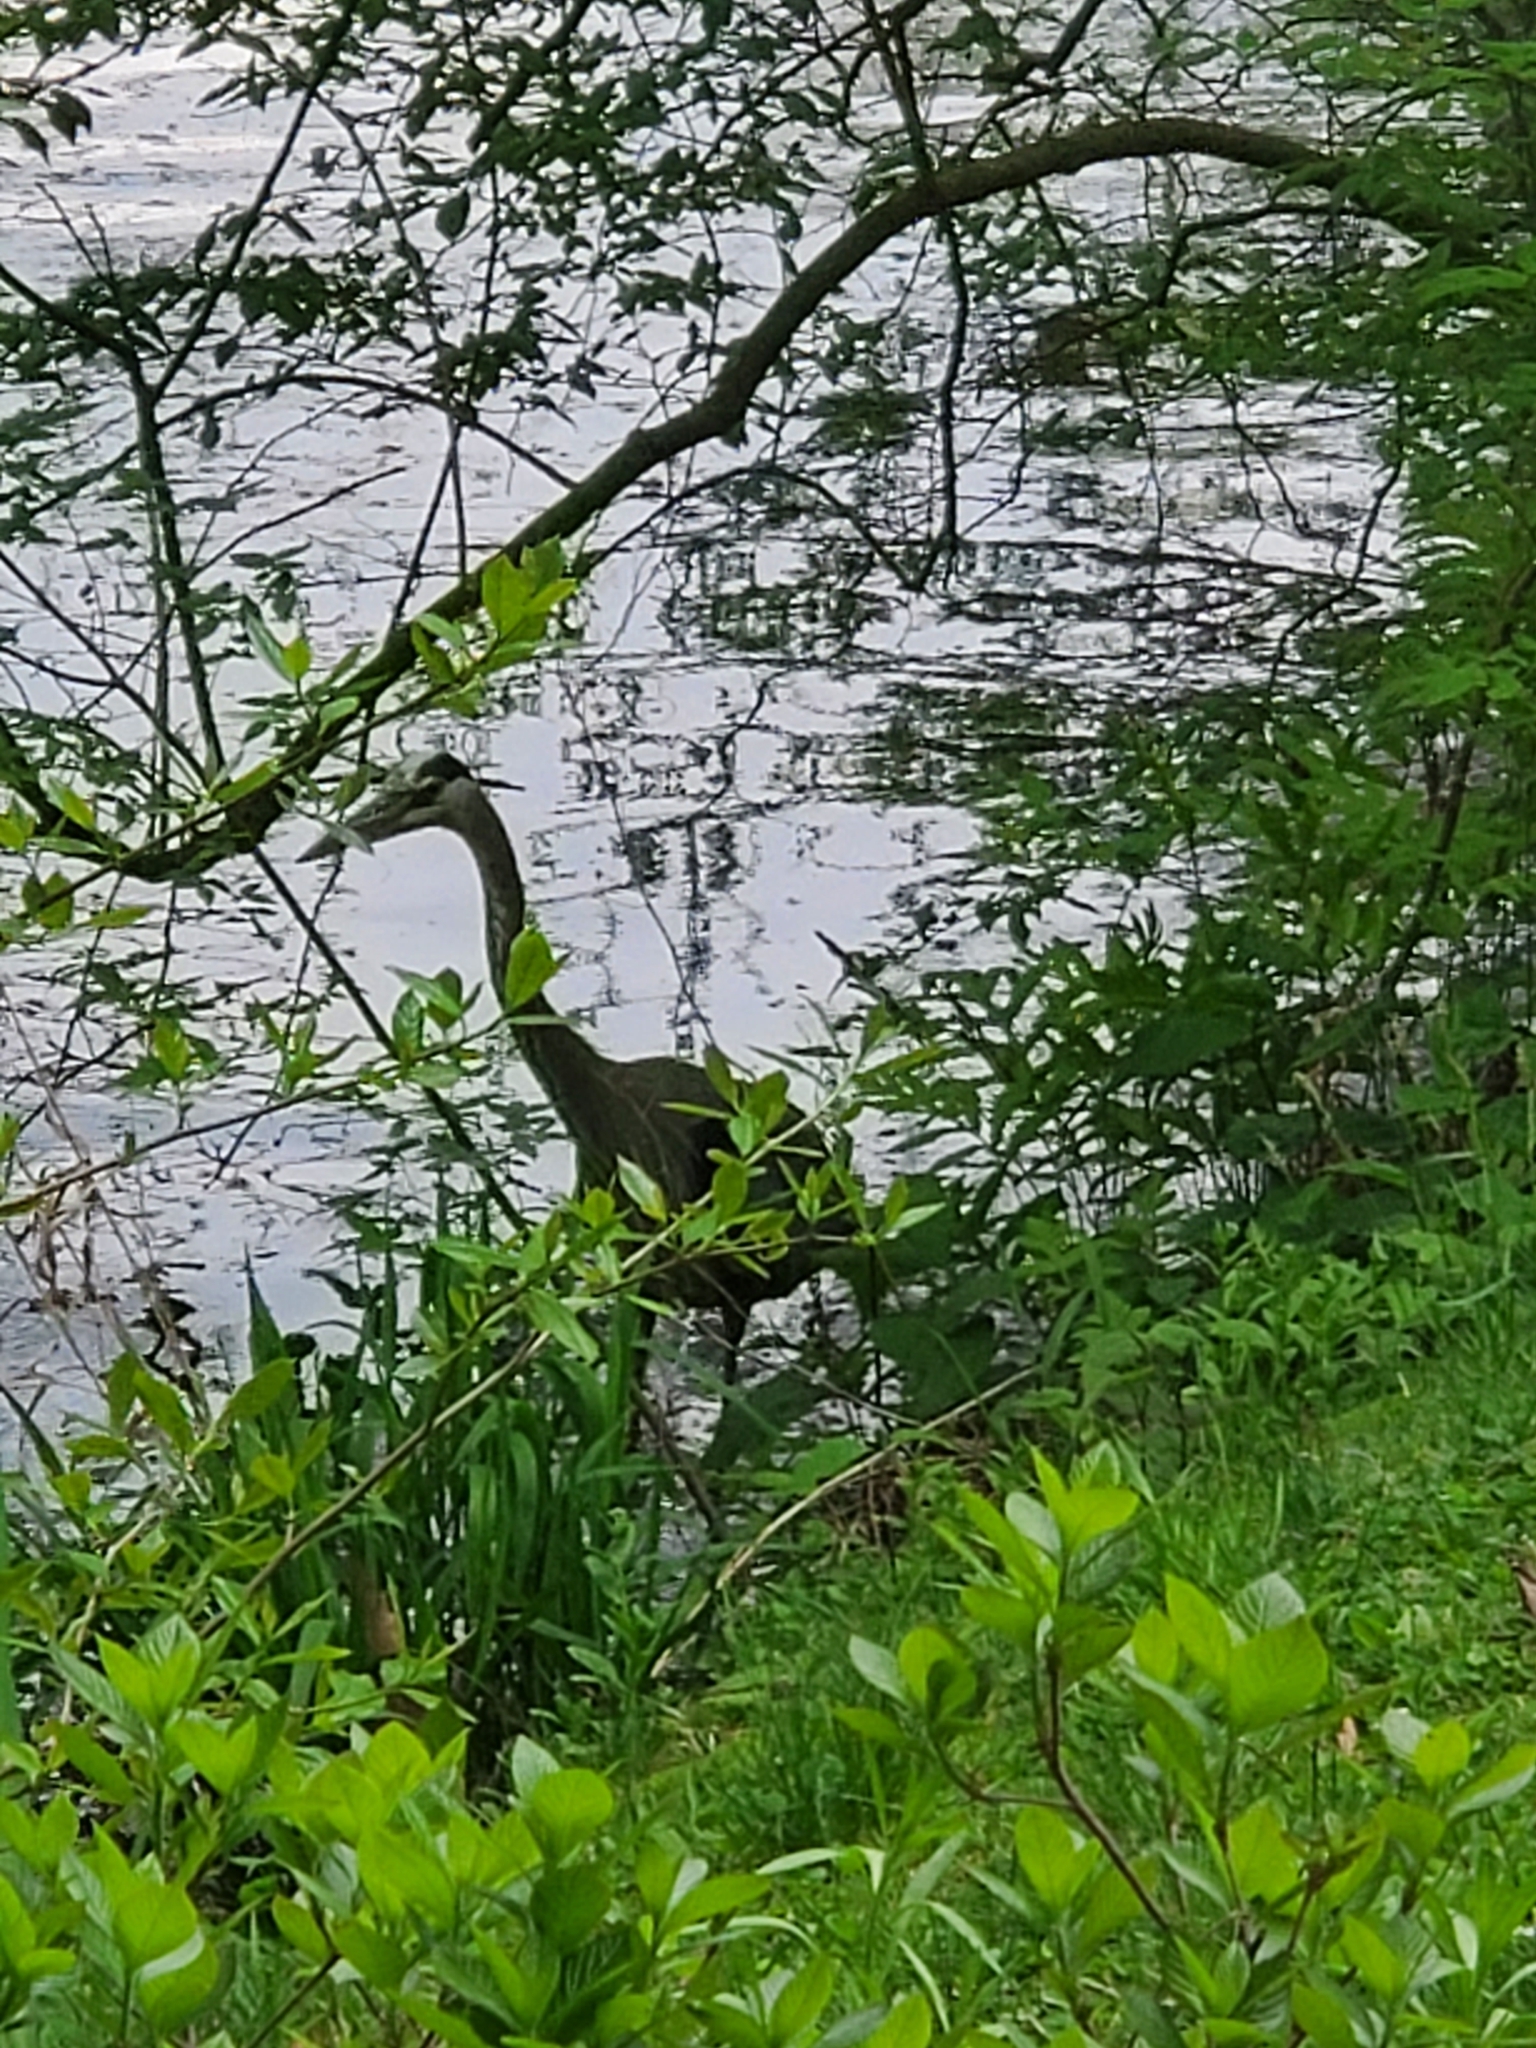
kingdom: Animalia
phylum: Chordata
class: Aves
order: Pelecaniformes
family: Ardeidae
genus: Ardea
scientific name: Ardea herodias
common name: Great blue heron
